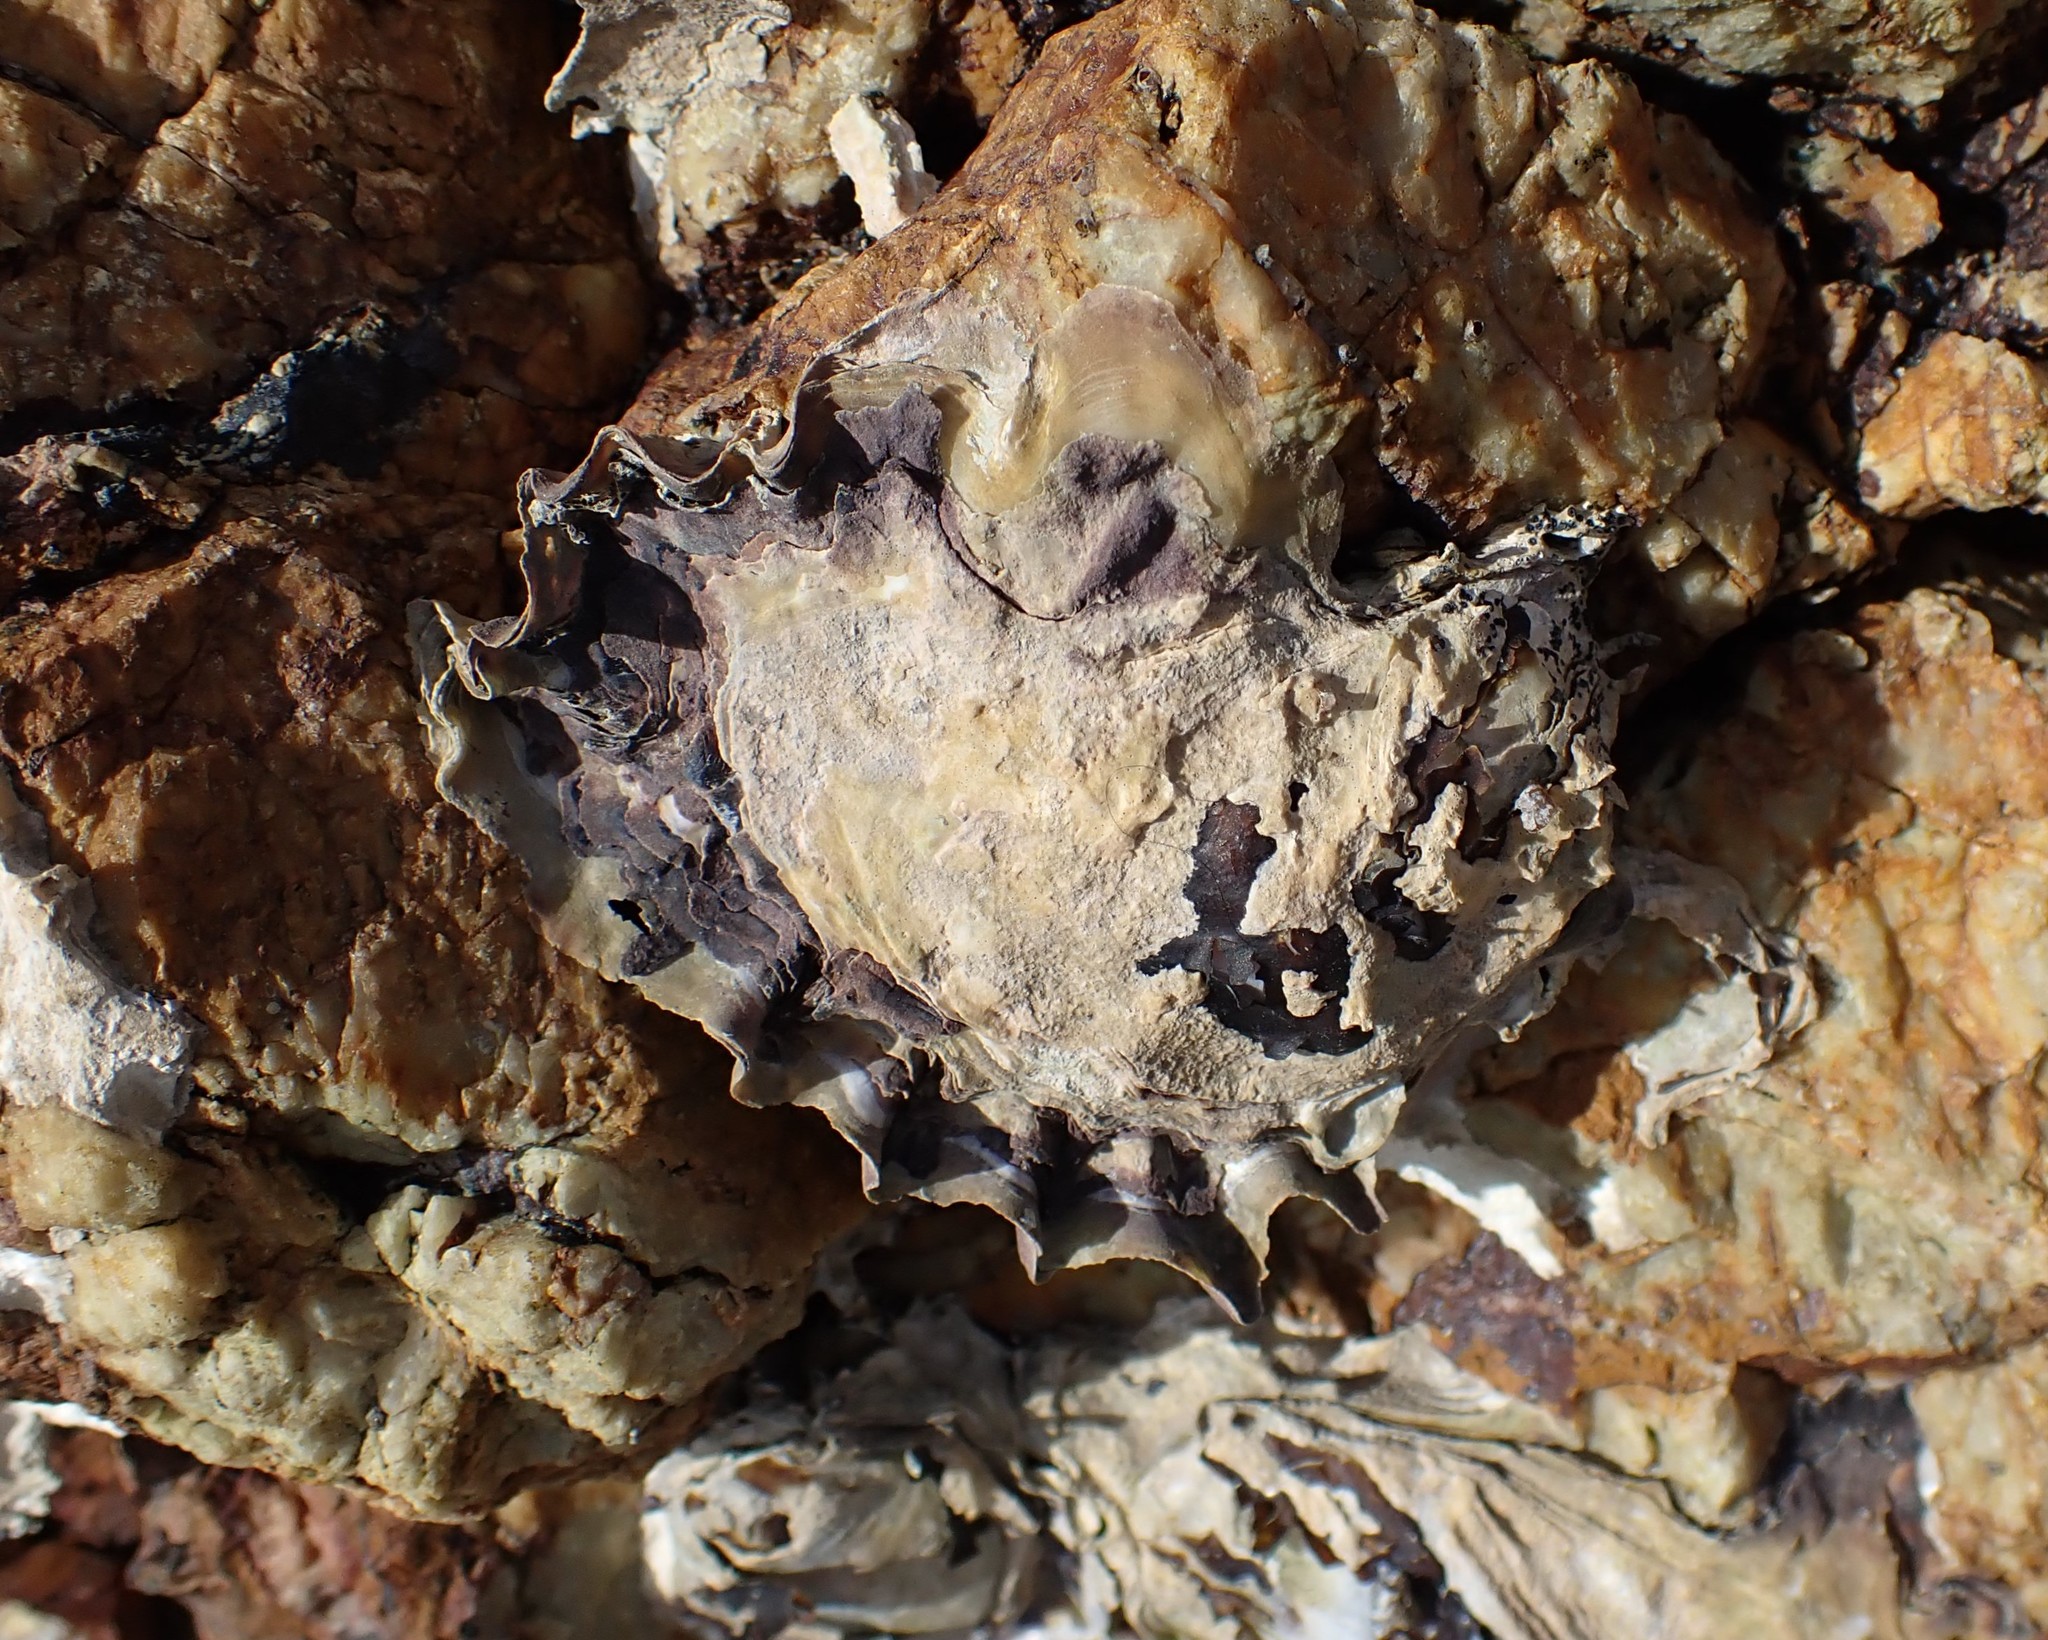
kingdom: Animalia
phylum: Mollusca
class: Bivalvia
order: Ostreida
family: Ostreidae
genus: Saccostrea
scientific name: Saccostrea glomerata
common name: Sydney cupped oyster
